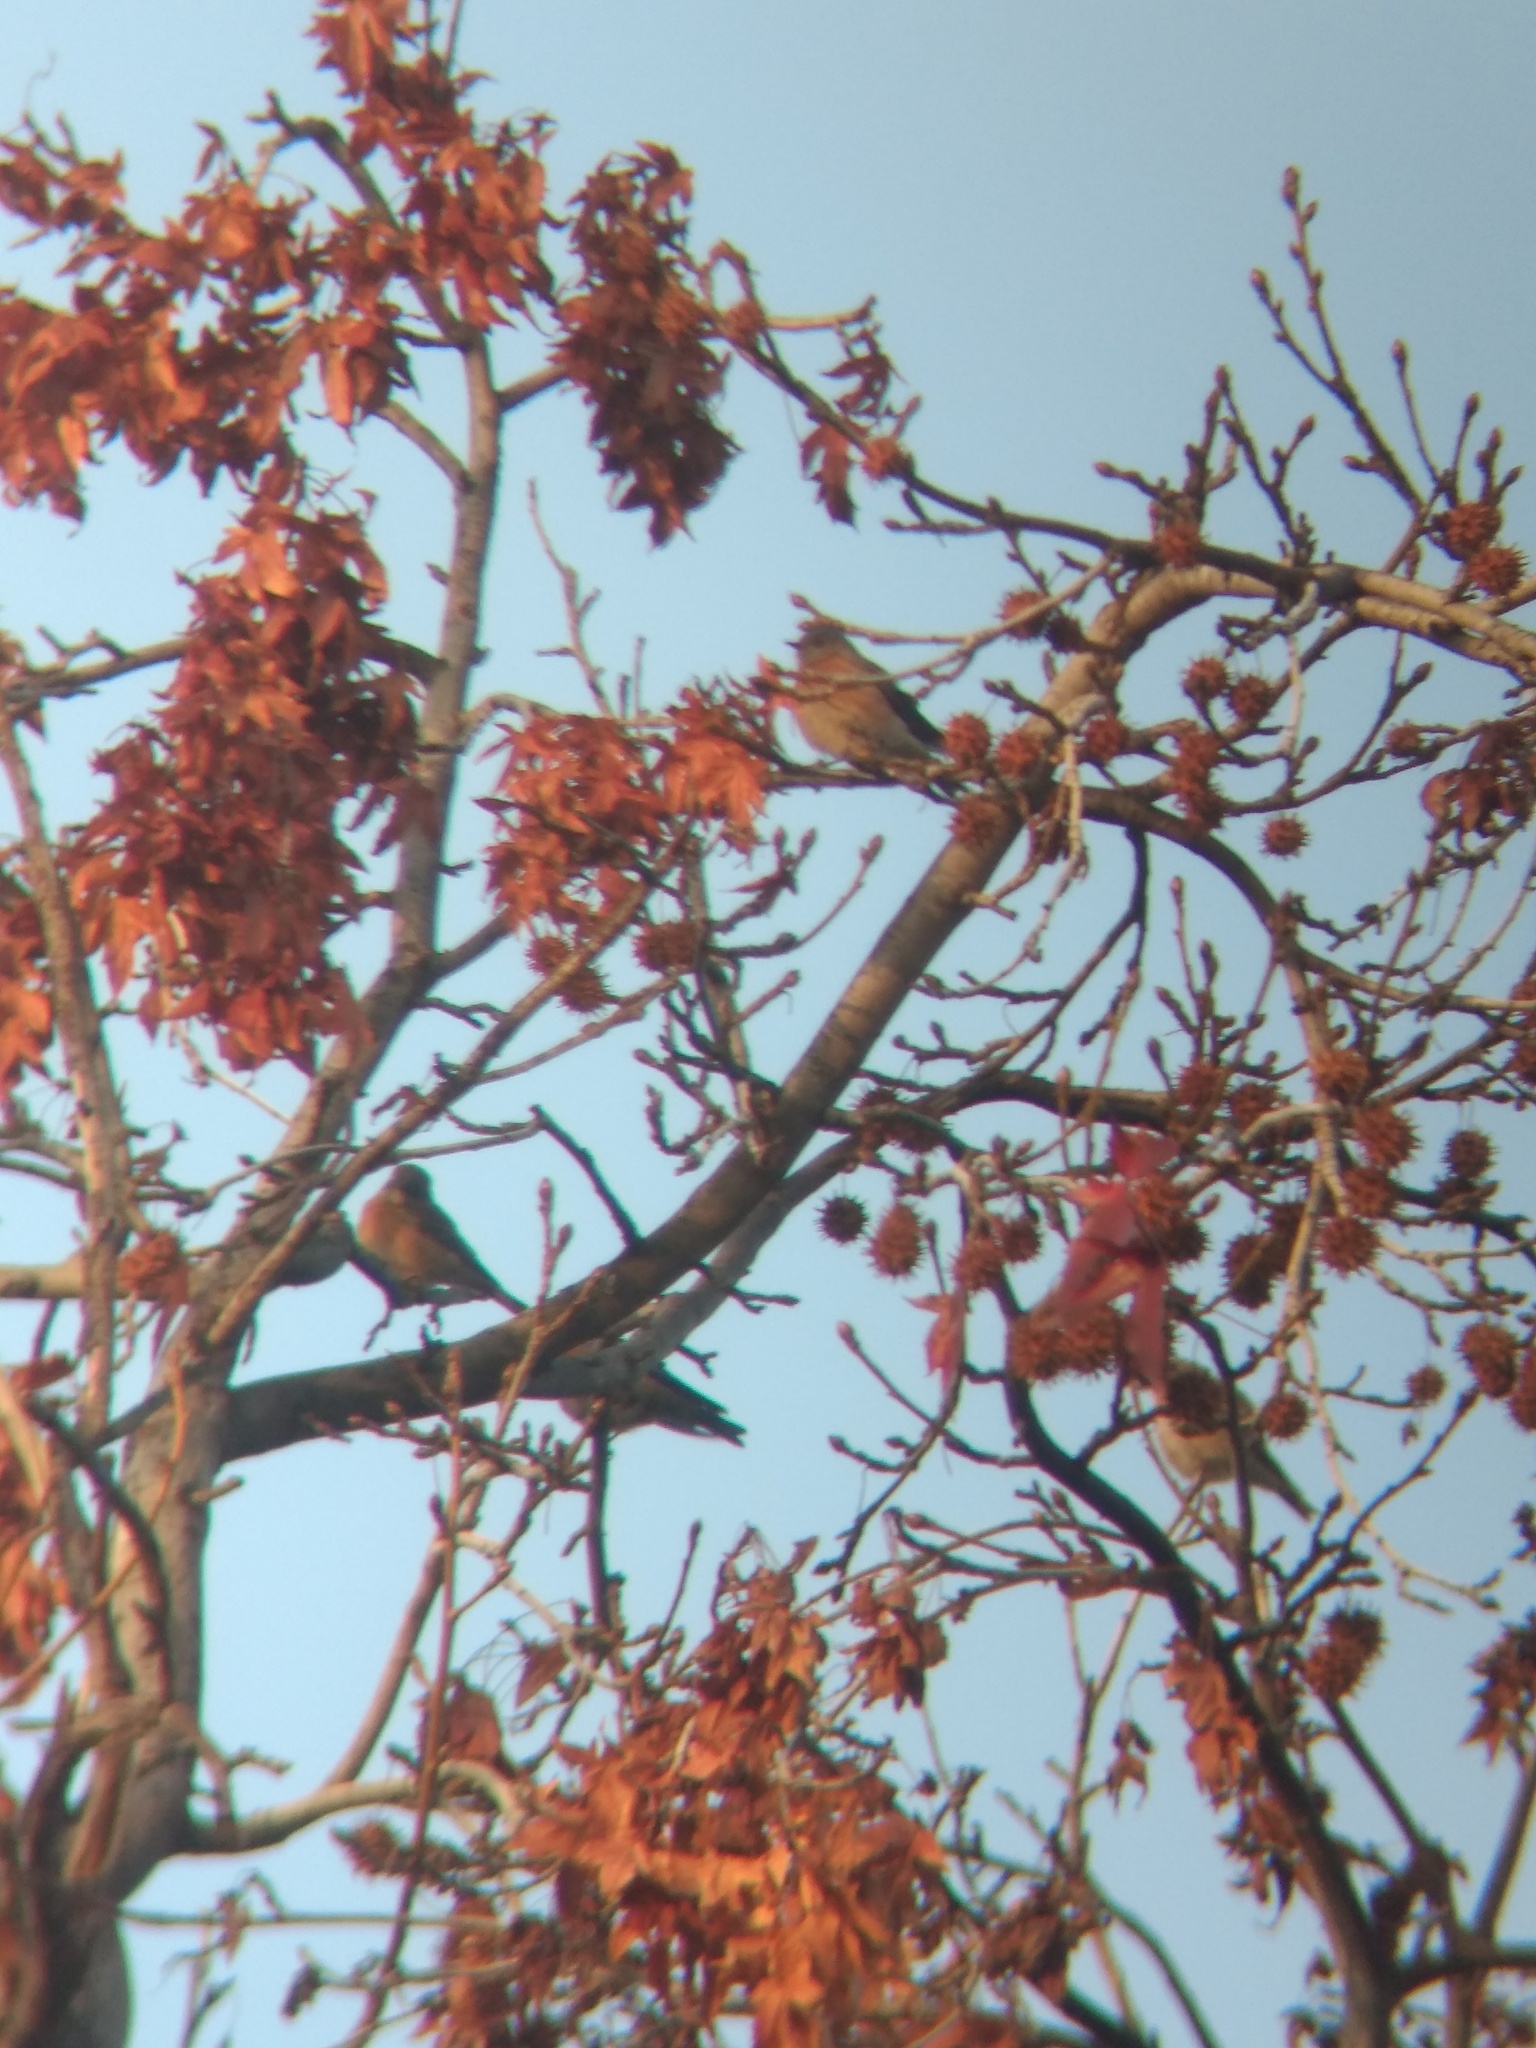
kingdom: Animalia
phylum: Chordata
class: Aves
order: Passeriformes
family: Turdidae
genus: Sialia
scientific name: Sialia mexicana
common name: Western bluebird
